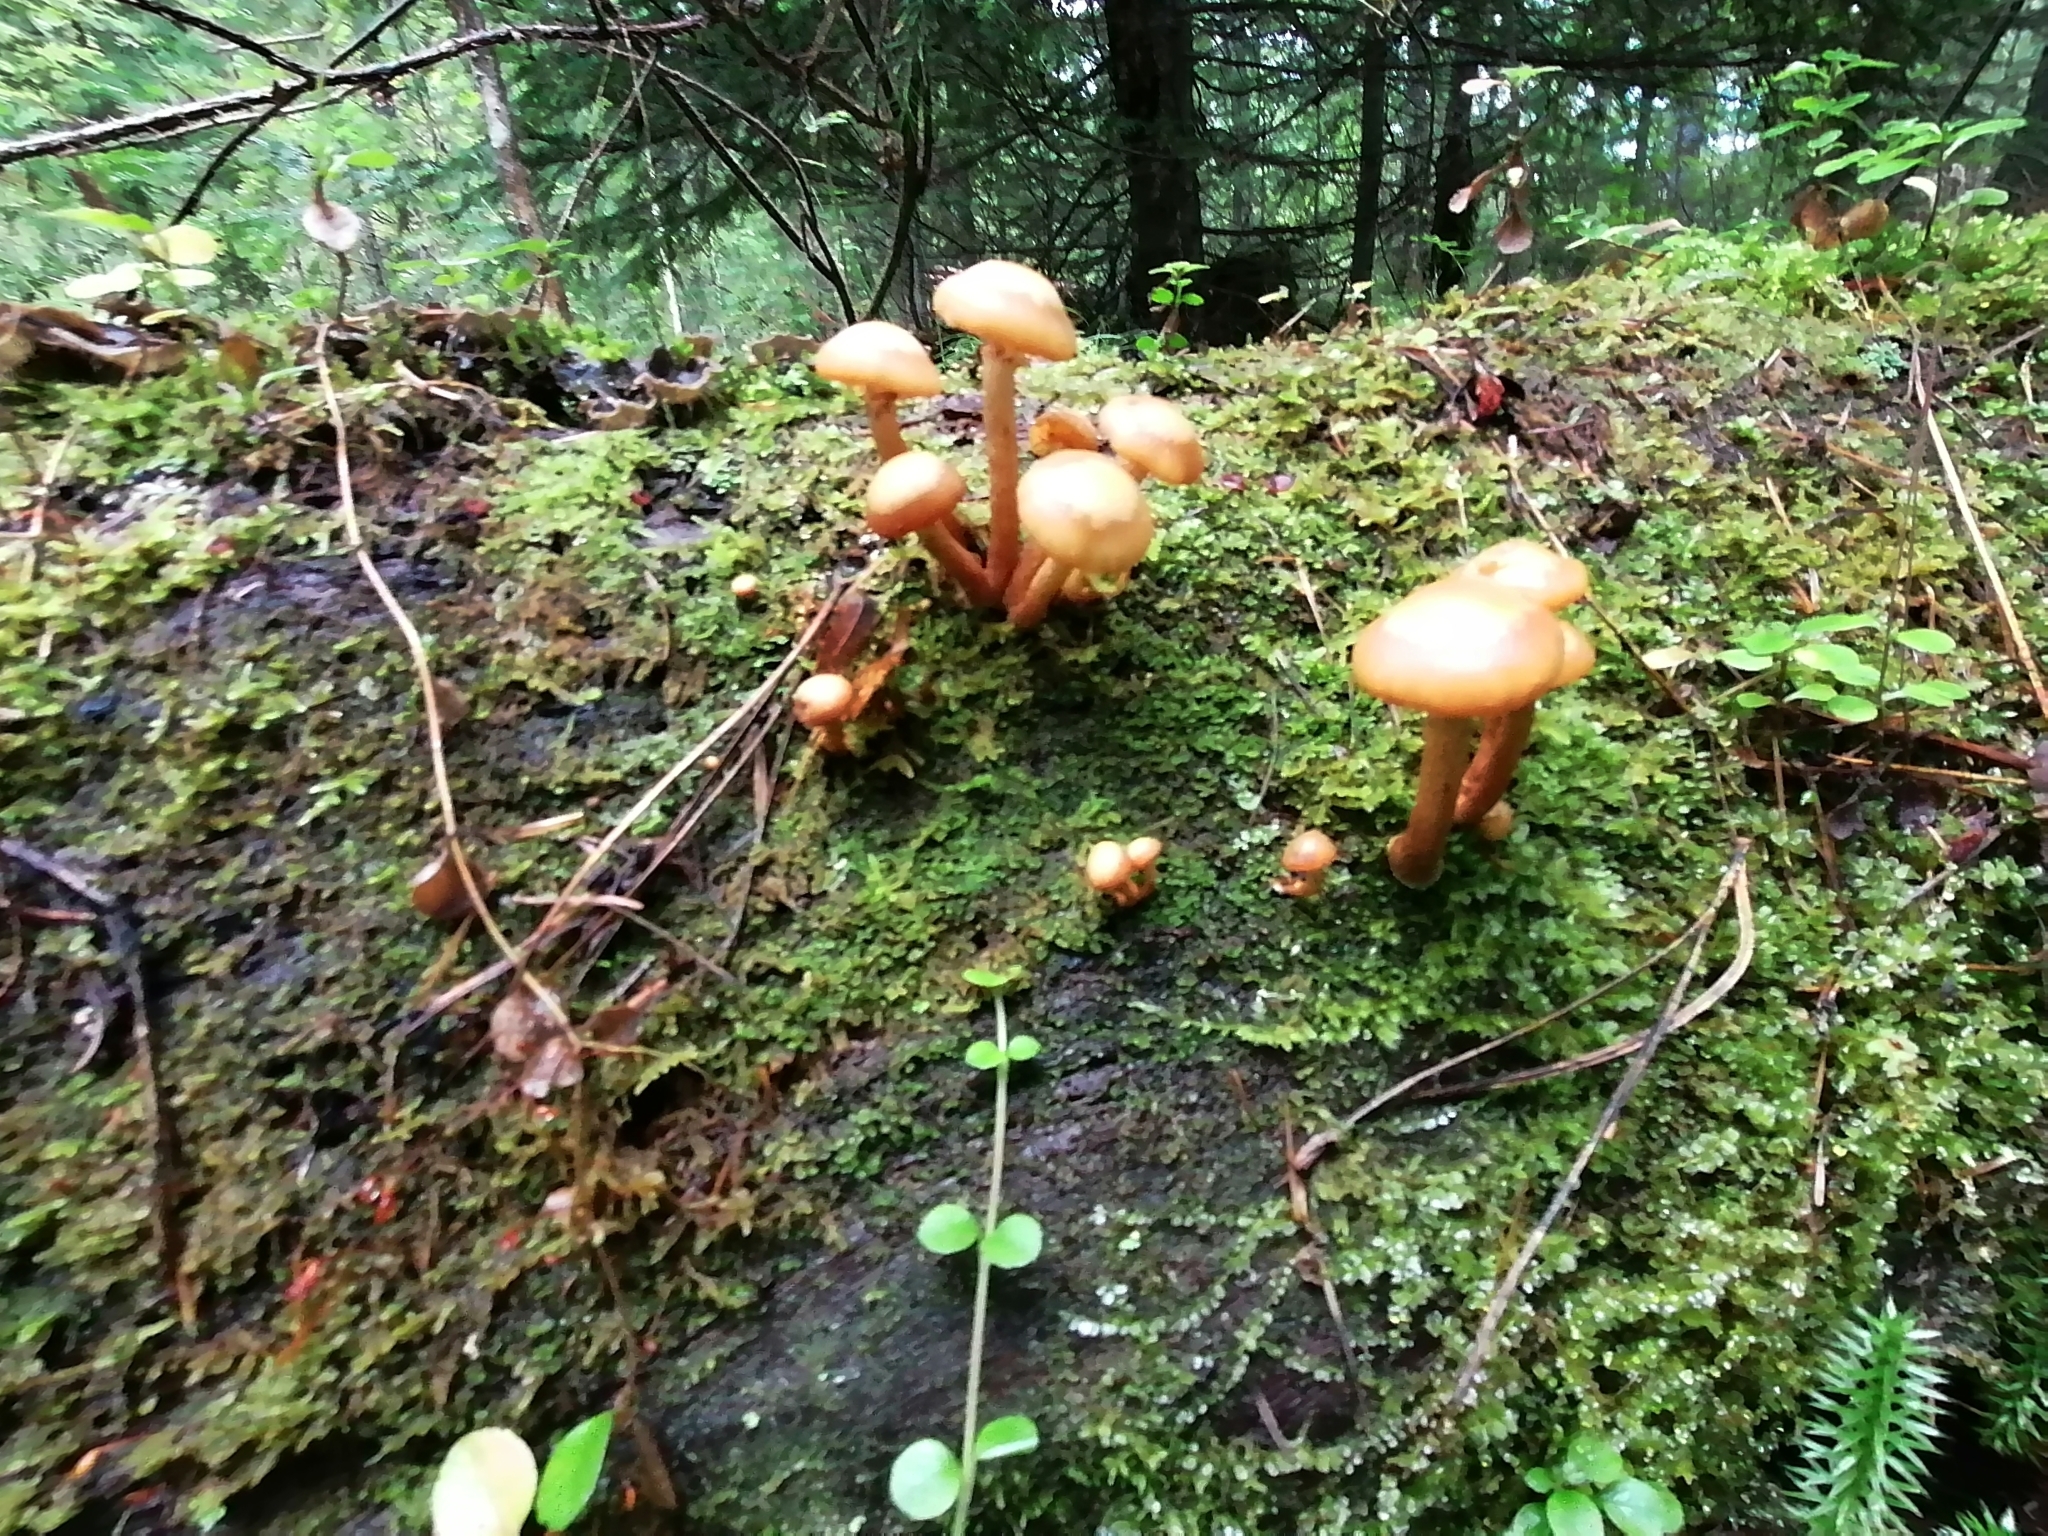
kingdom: Fungi
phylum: Basidiomycota
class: Agaricomycetes
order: Agaricales
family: Strophariaceae
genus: Kuehneromyces
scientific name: Kuehneromyces mutabilis
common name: Sheathed woodtuft
